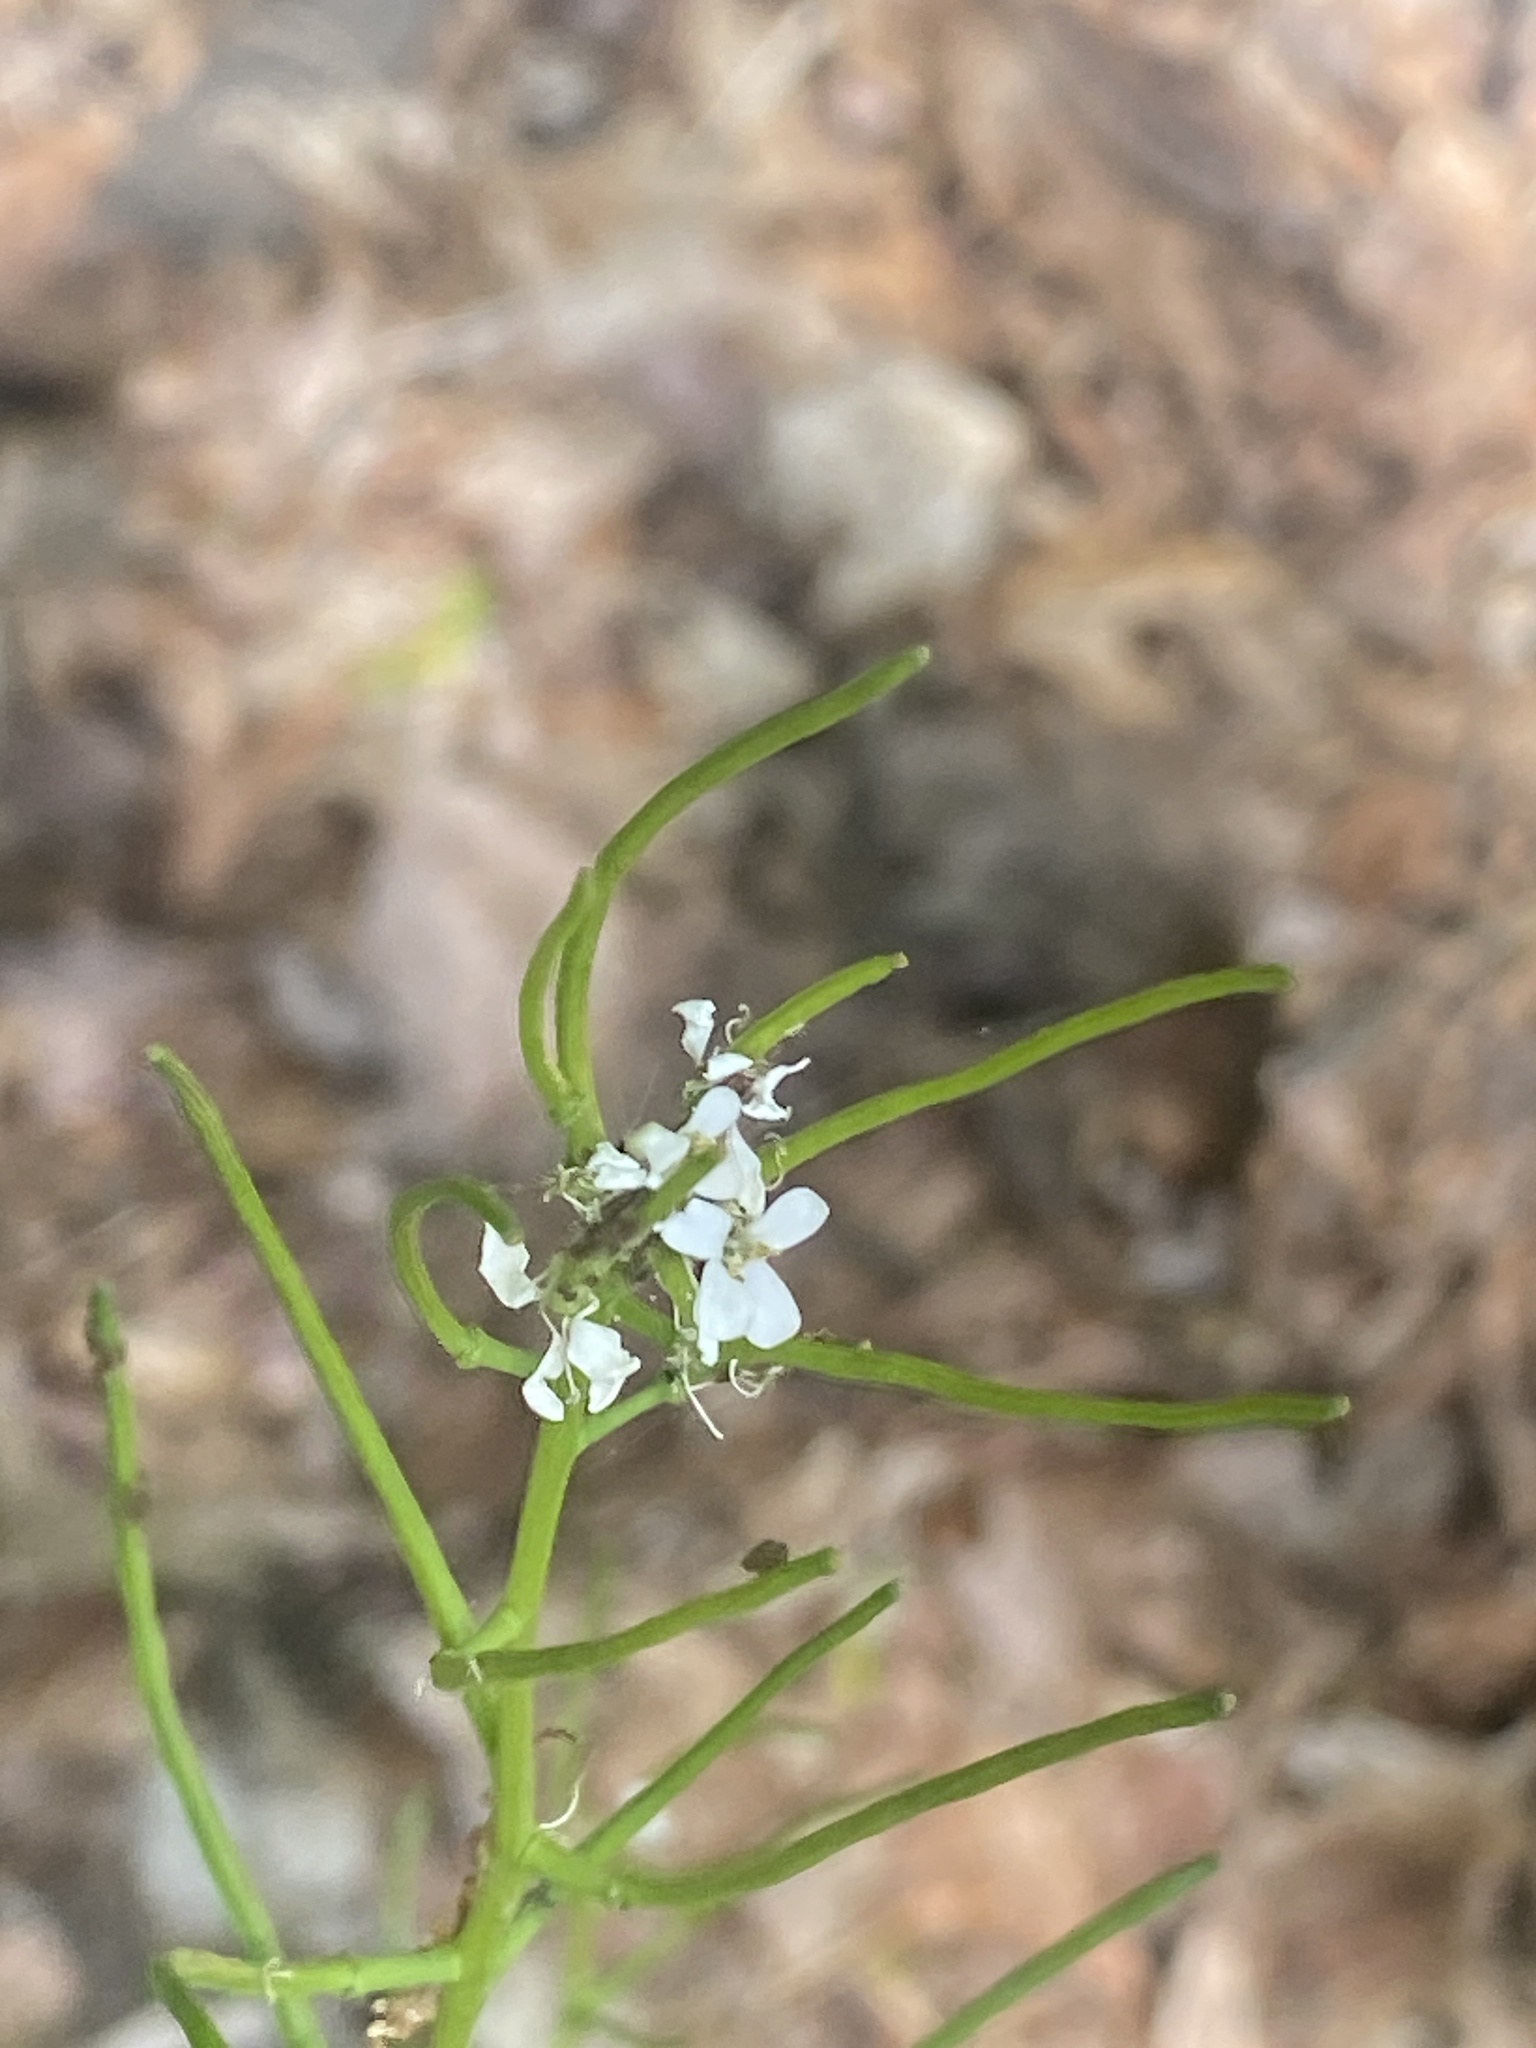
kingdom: Plantae
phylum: Tracheophyta
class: Magnoliopsida
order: Brassicales
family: Brassicaceae
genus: Alliaria
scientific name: Alliaria petiolata
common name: Garlic mustard
